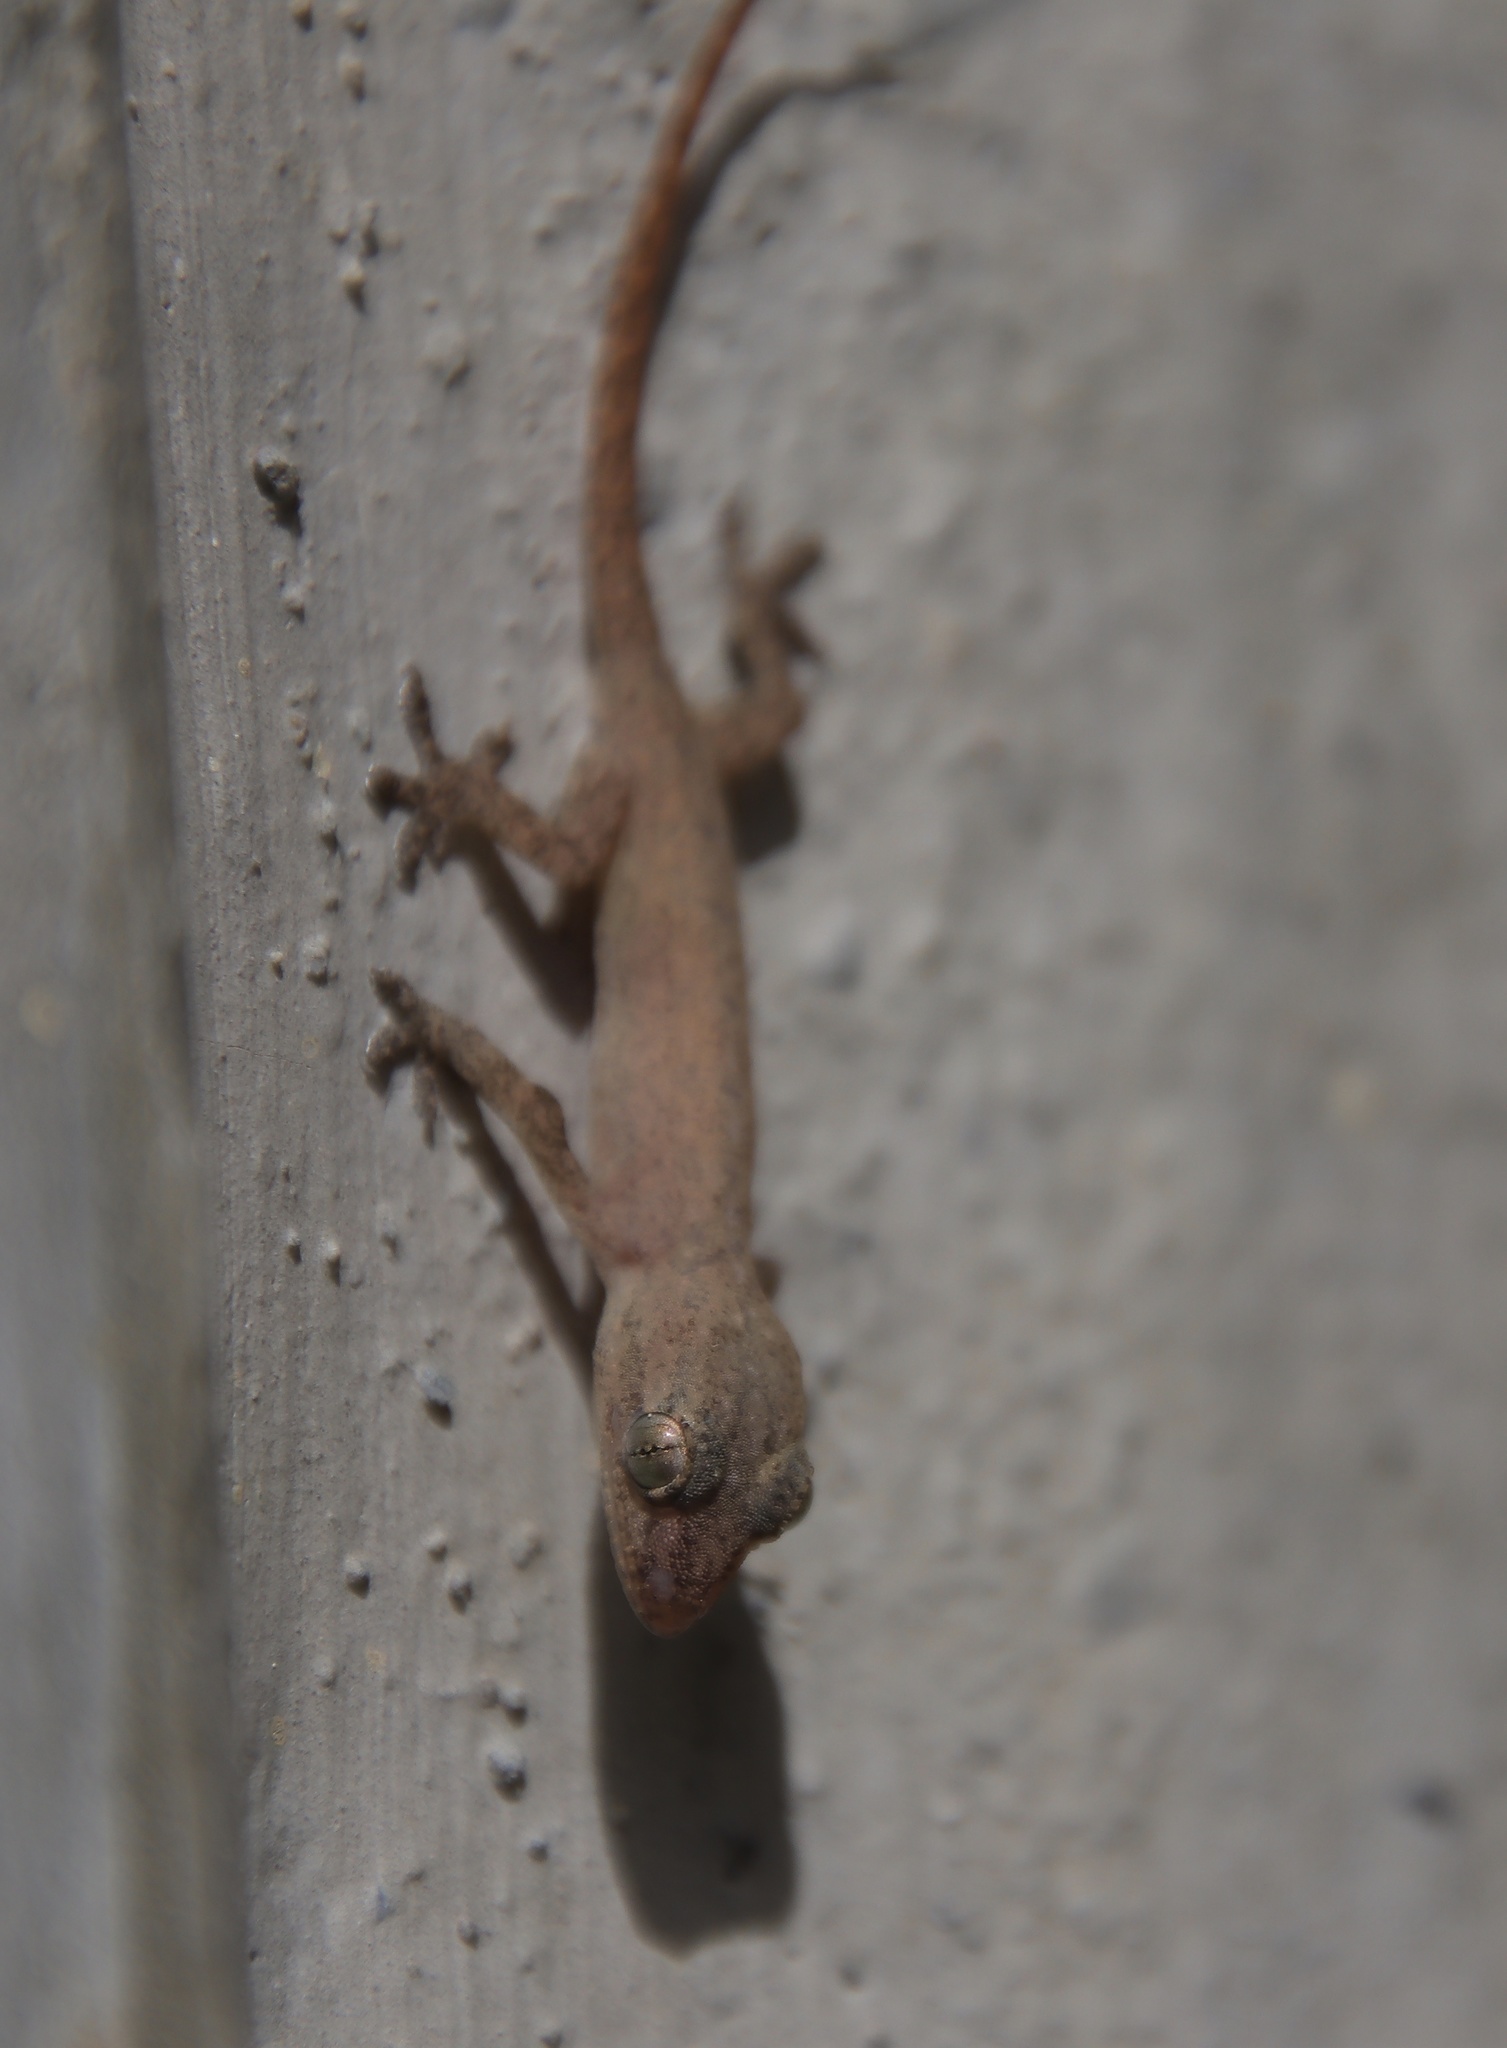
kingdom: Animalia
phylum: Chordata
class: Squamata
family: Gekkonidae
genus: Hemidactylus
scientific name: Hemidactylus frenatus
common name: Common house gecko
